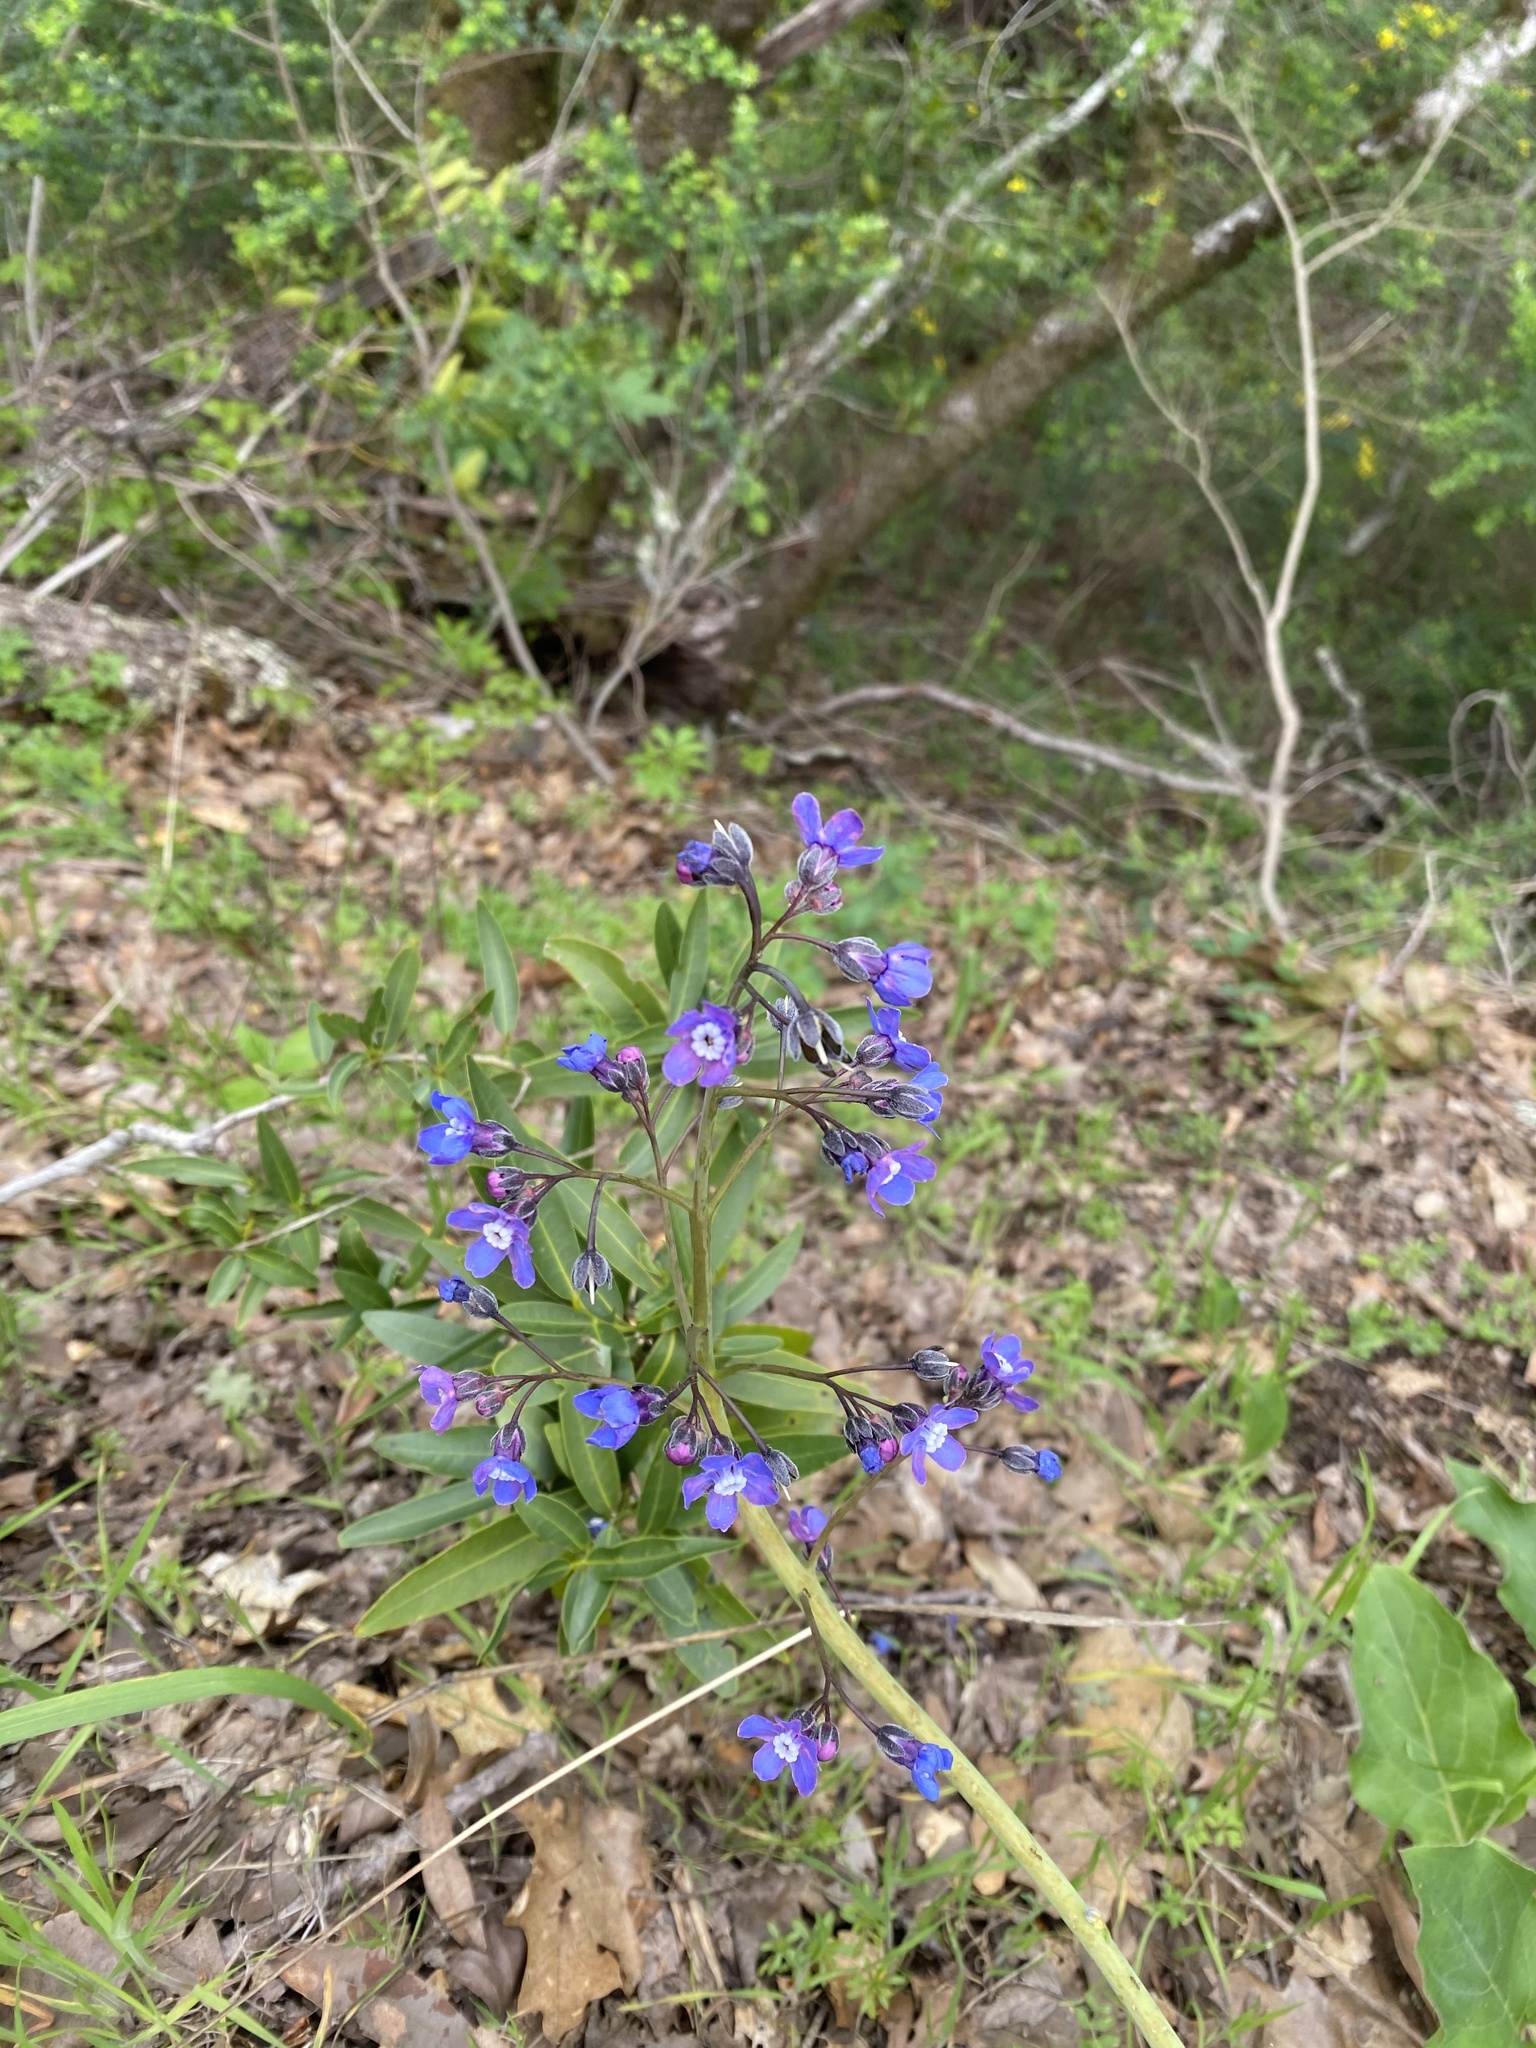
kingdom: Plantae
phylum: Tracheophyta
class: Magnoliopsida
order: Boraginales
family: Boraginaceae
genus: Adelinia
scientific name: Adelinia grande
